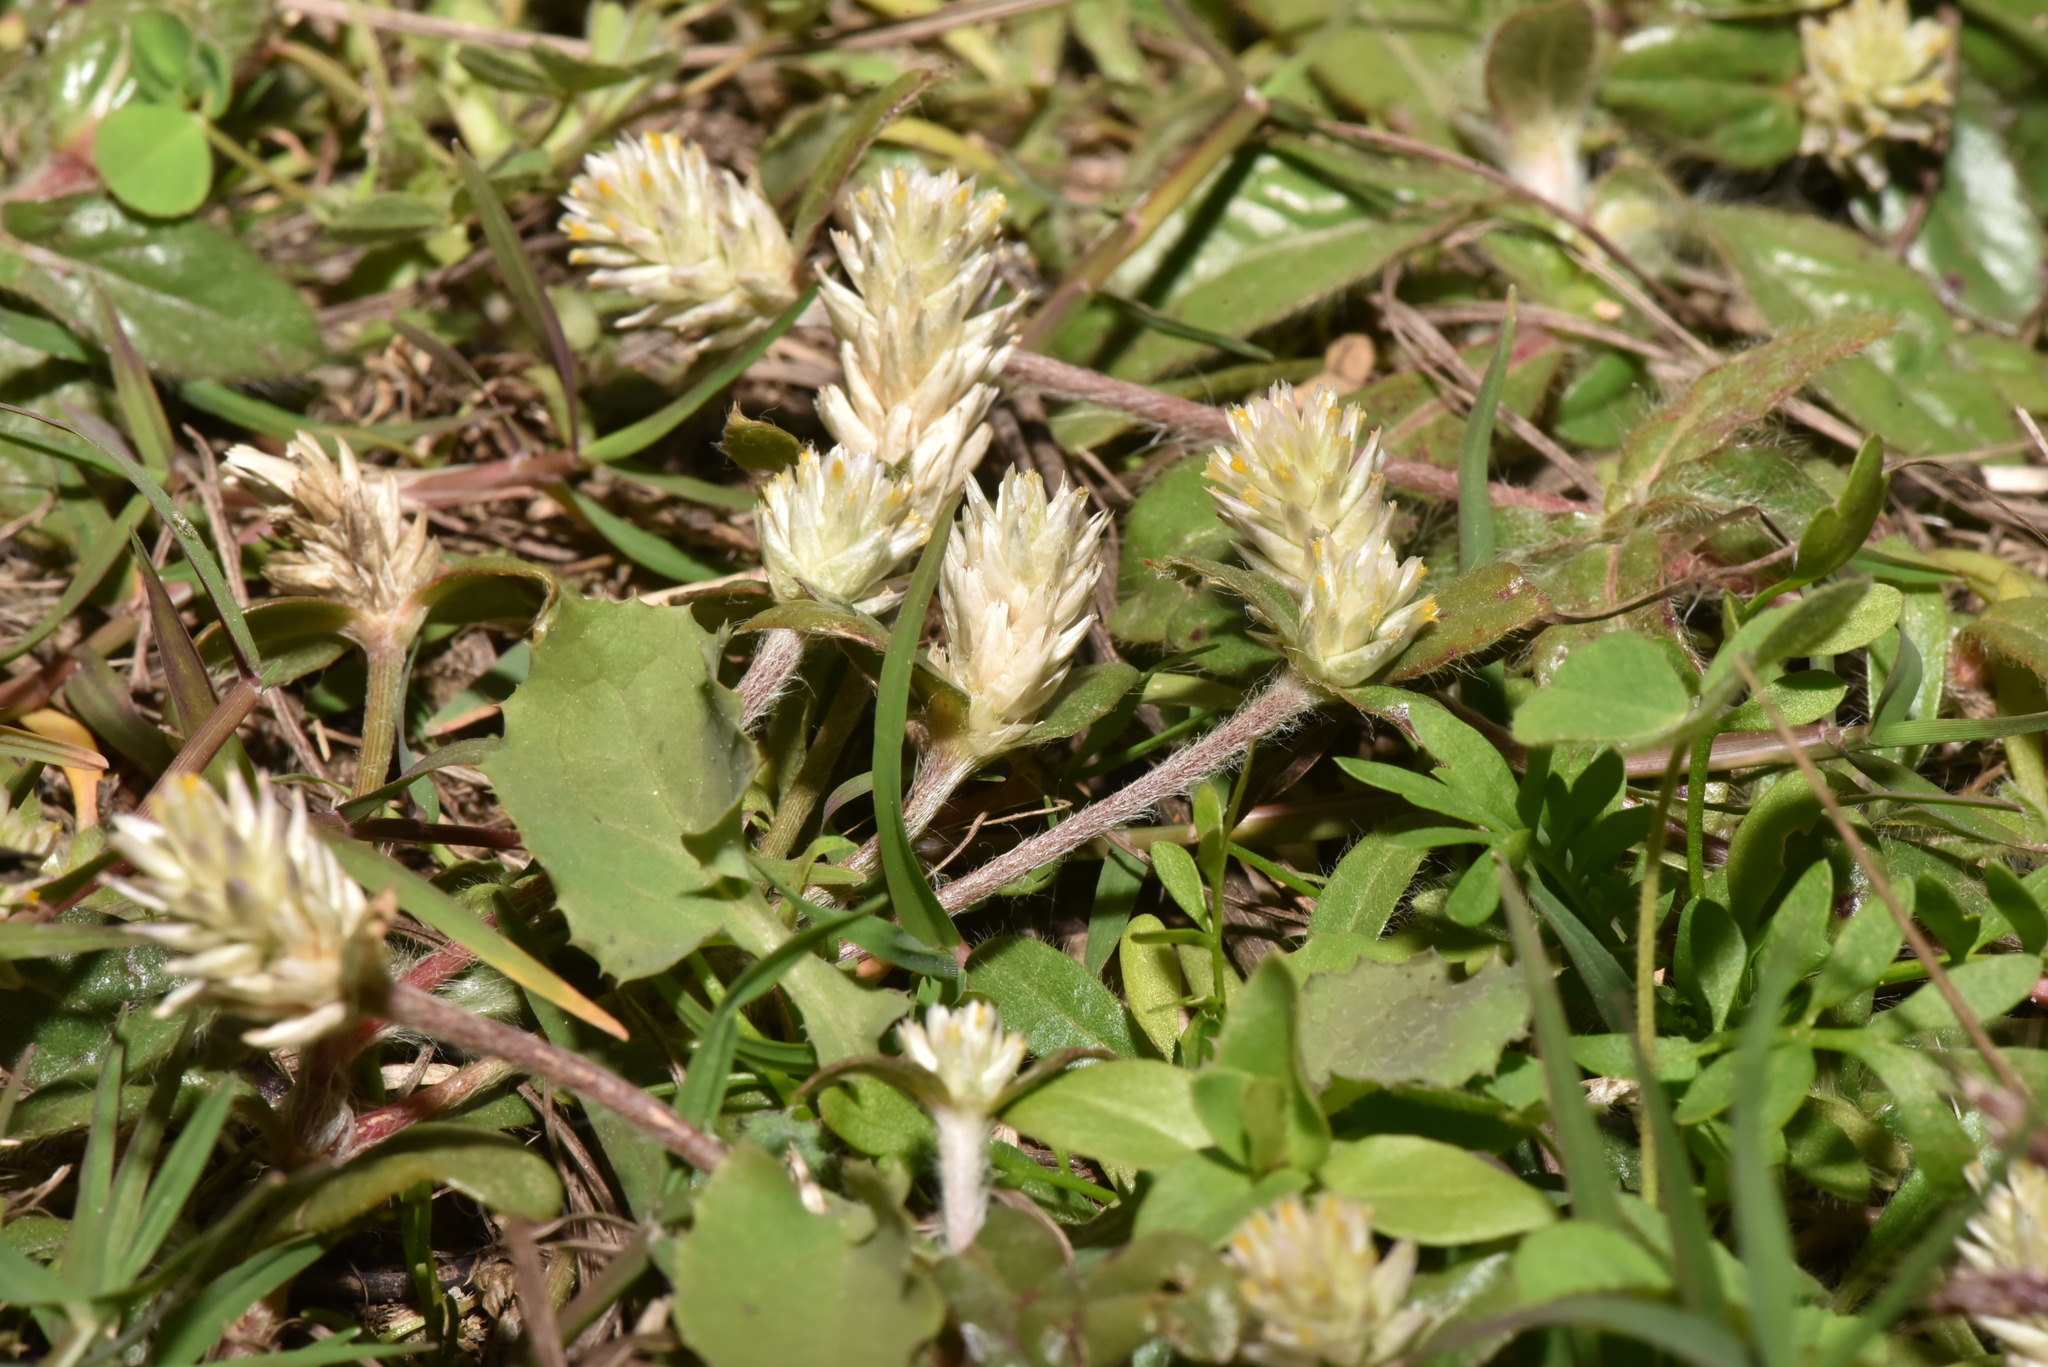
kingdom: Plantae
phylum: Tracheophyta
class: Magnoliopsida
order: Caryophyllales
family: Amaranthaceae
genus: Gomphrena
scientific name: Gomphrena celosioides
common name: Gomphrena-weed
